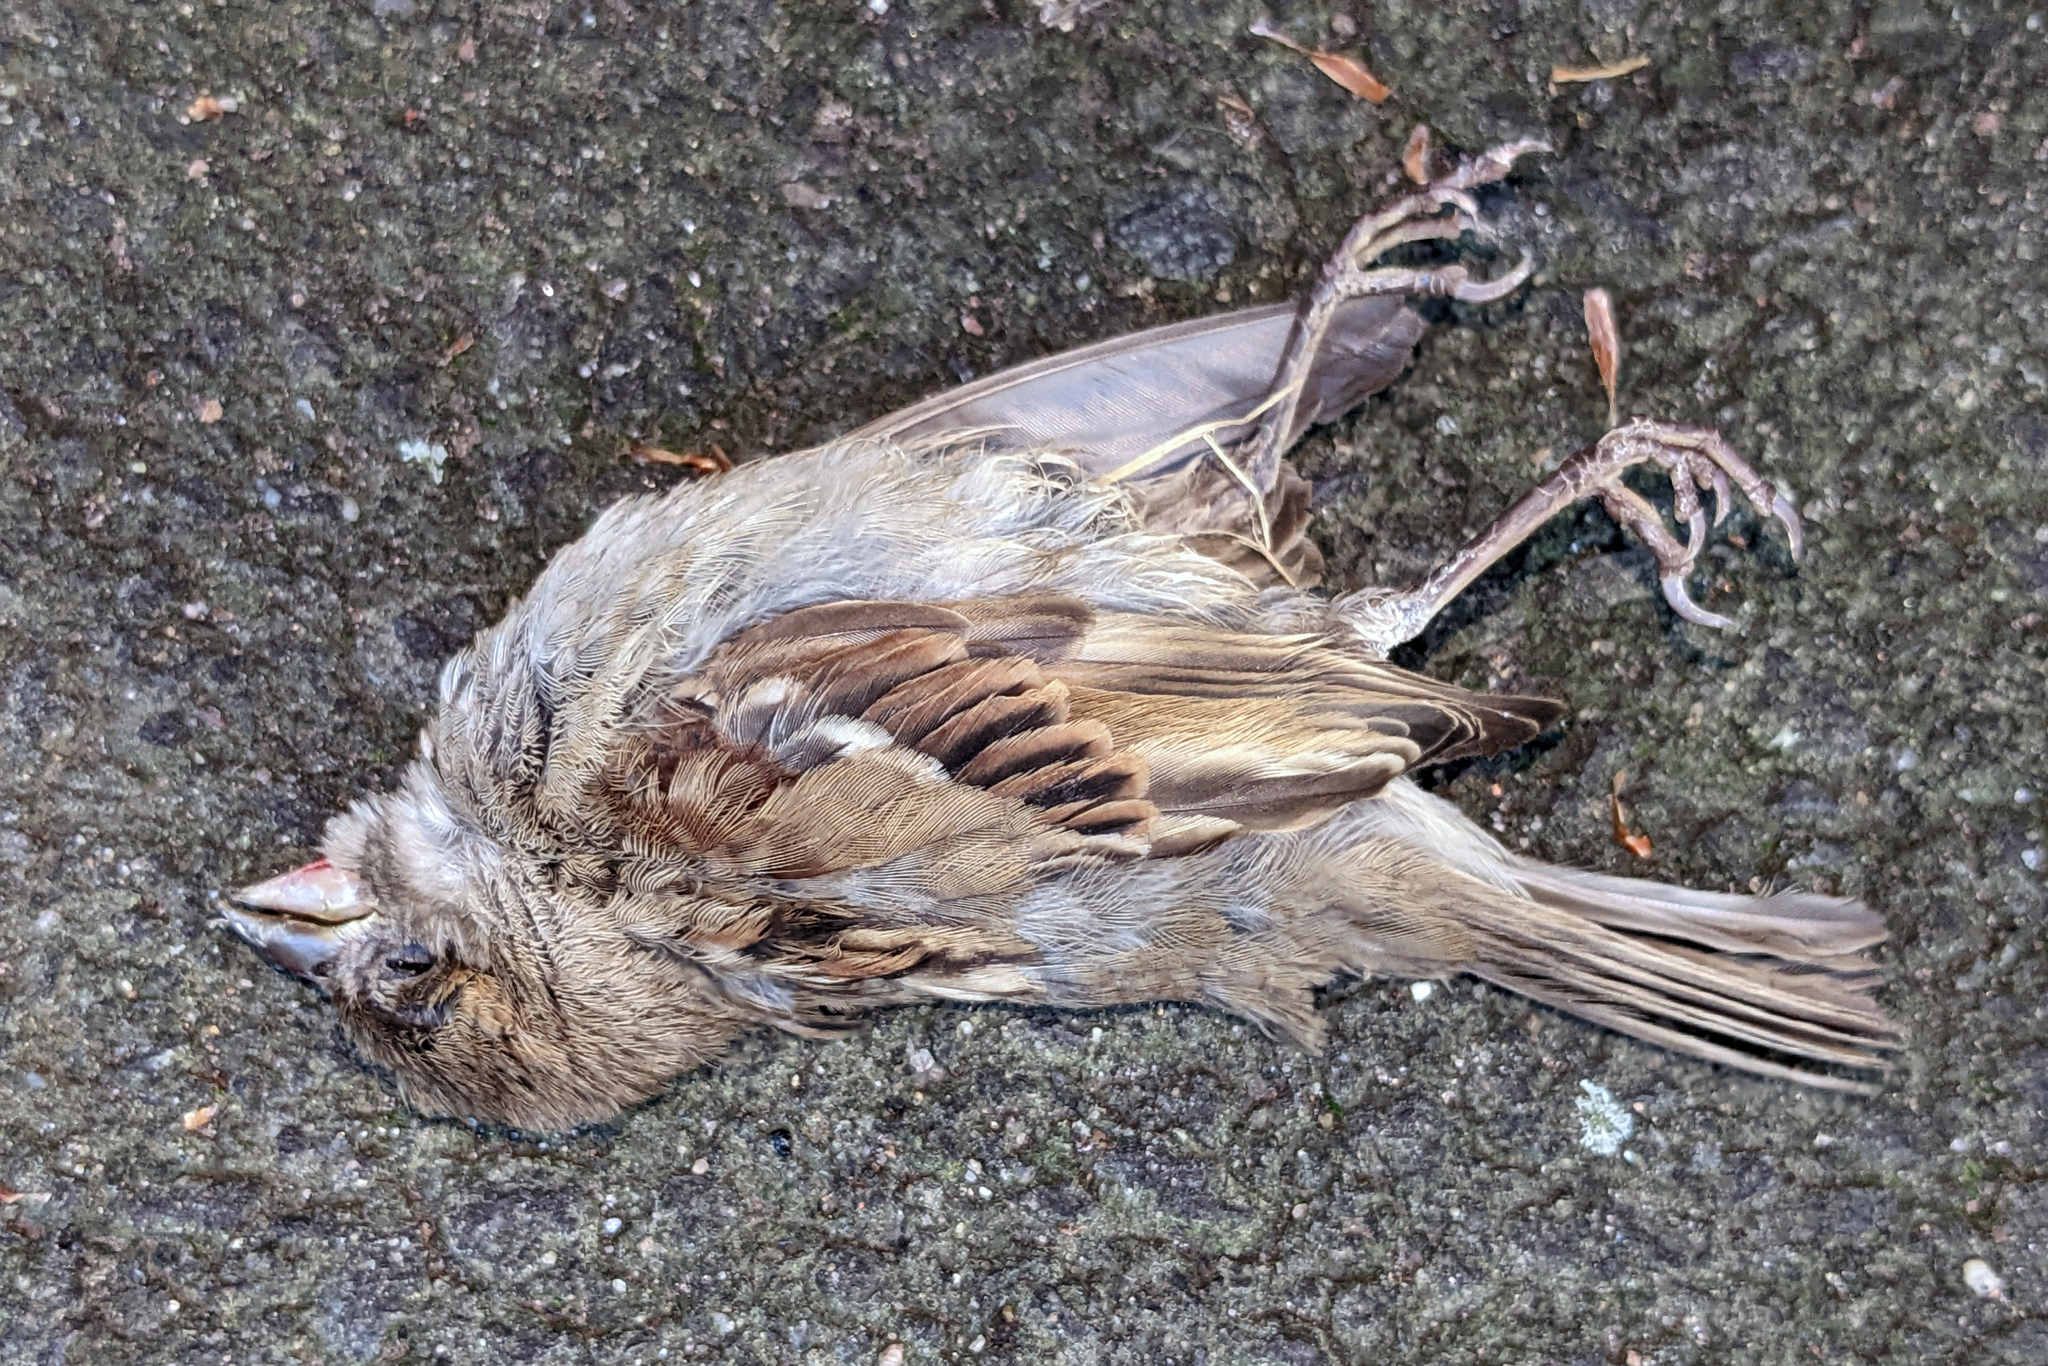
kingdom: Animalia
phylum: Chordata
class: Aves
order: Passeriformes
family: Passeridae
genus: Passer
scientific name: Passer domesticus
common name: House sparrow
